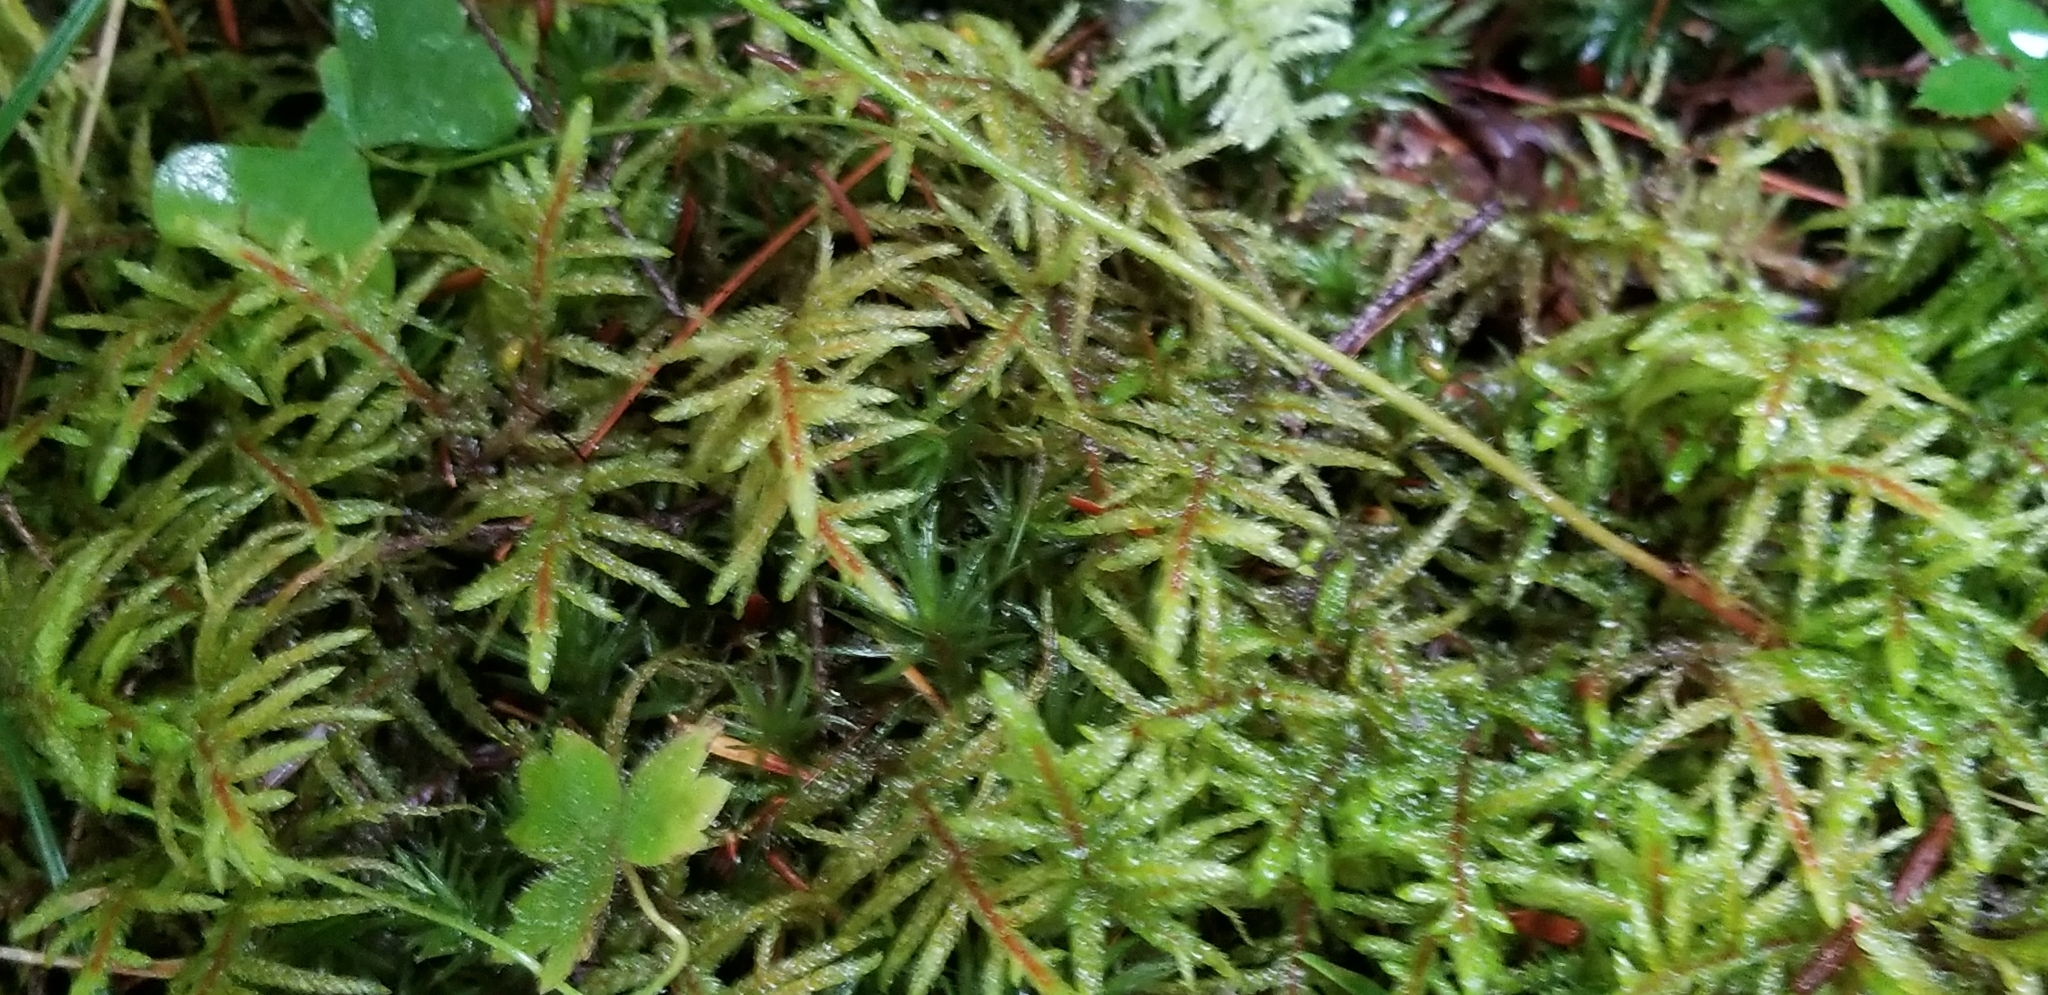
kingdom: Plantae
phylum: Bryophyta
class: Bryopsida
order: Hypnales
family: Hylocomiaceae
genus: Pleurozium
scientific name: Pleurozium schreberi
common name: Red-stemmed feather moss
